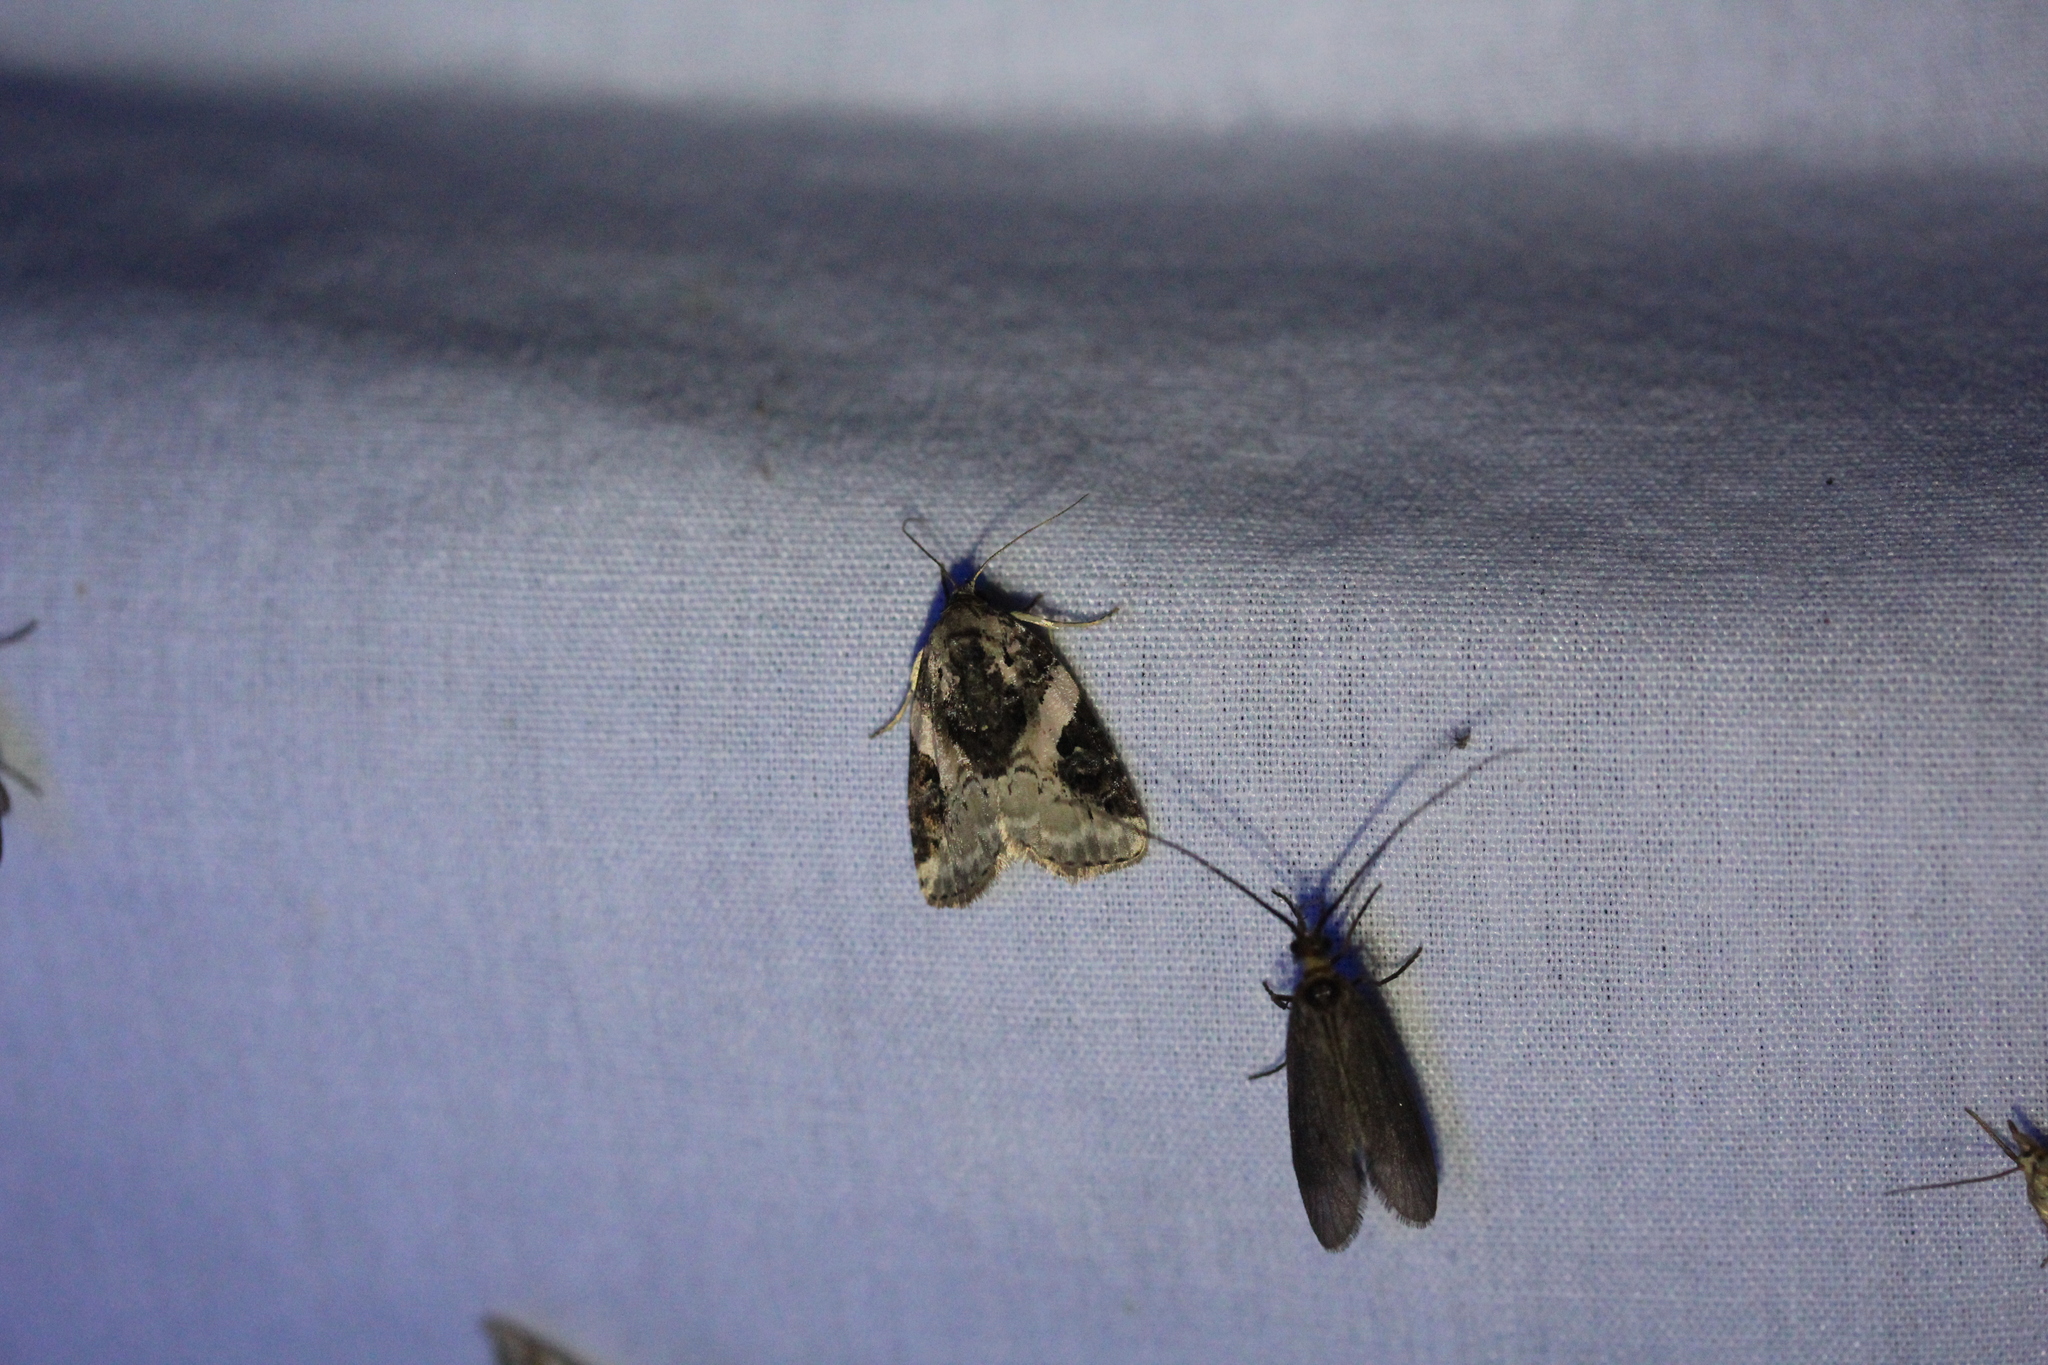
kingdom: Animalia
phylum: Arthropoda
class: Insecta
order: Lepidoptera
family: Noctuidae
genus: Pseudeustrotia
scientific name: Pseudeustrotia carneola
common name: Pink-barred lithacodia moth
